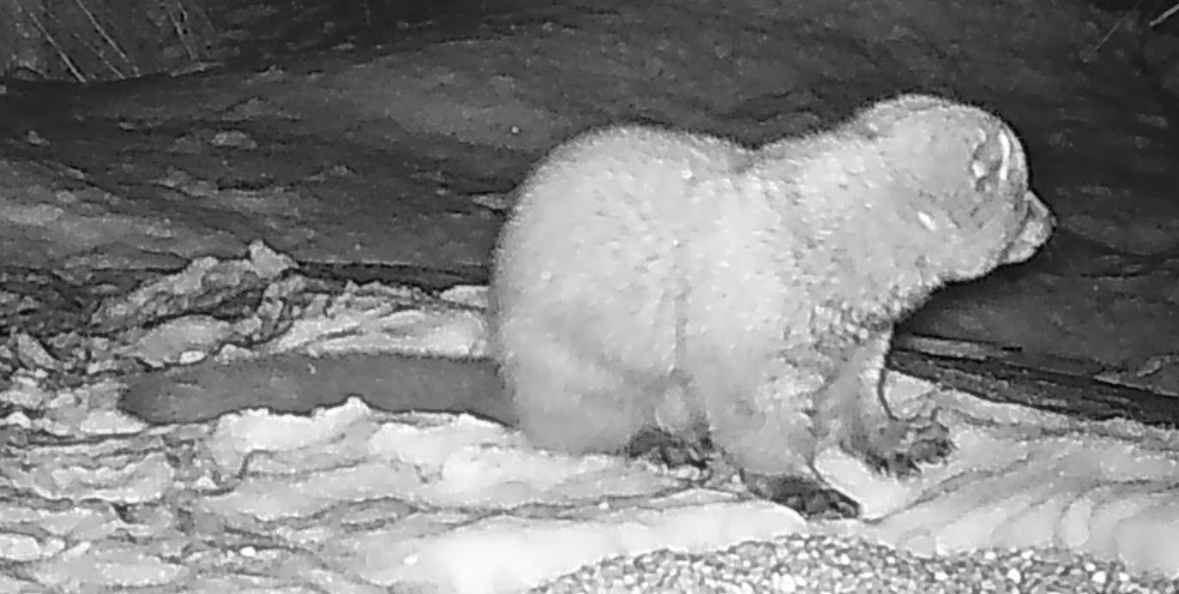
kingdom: Animalia
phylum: Chordata
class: Mammalia
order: Carnivora
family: Mustelidae
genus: Pekania
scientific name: Pekania pennanti
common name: Fisher
